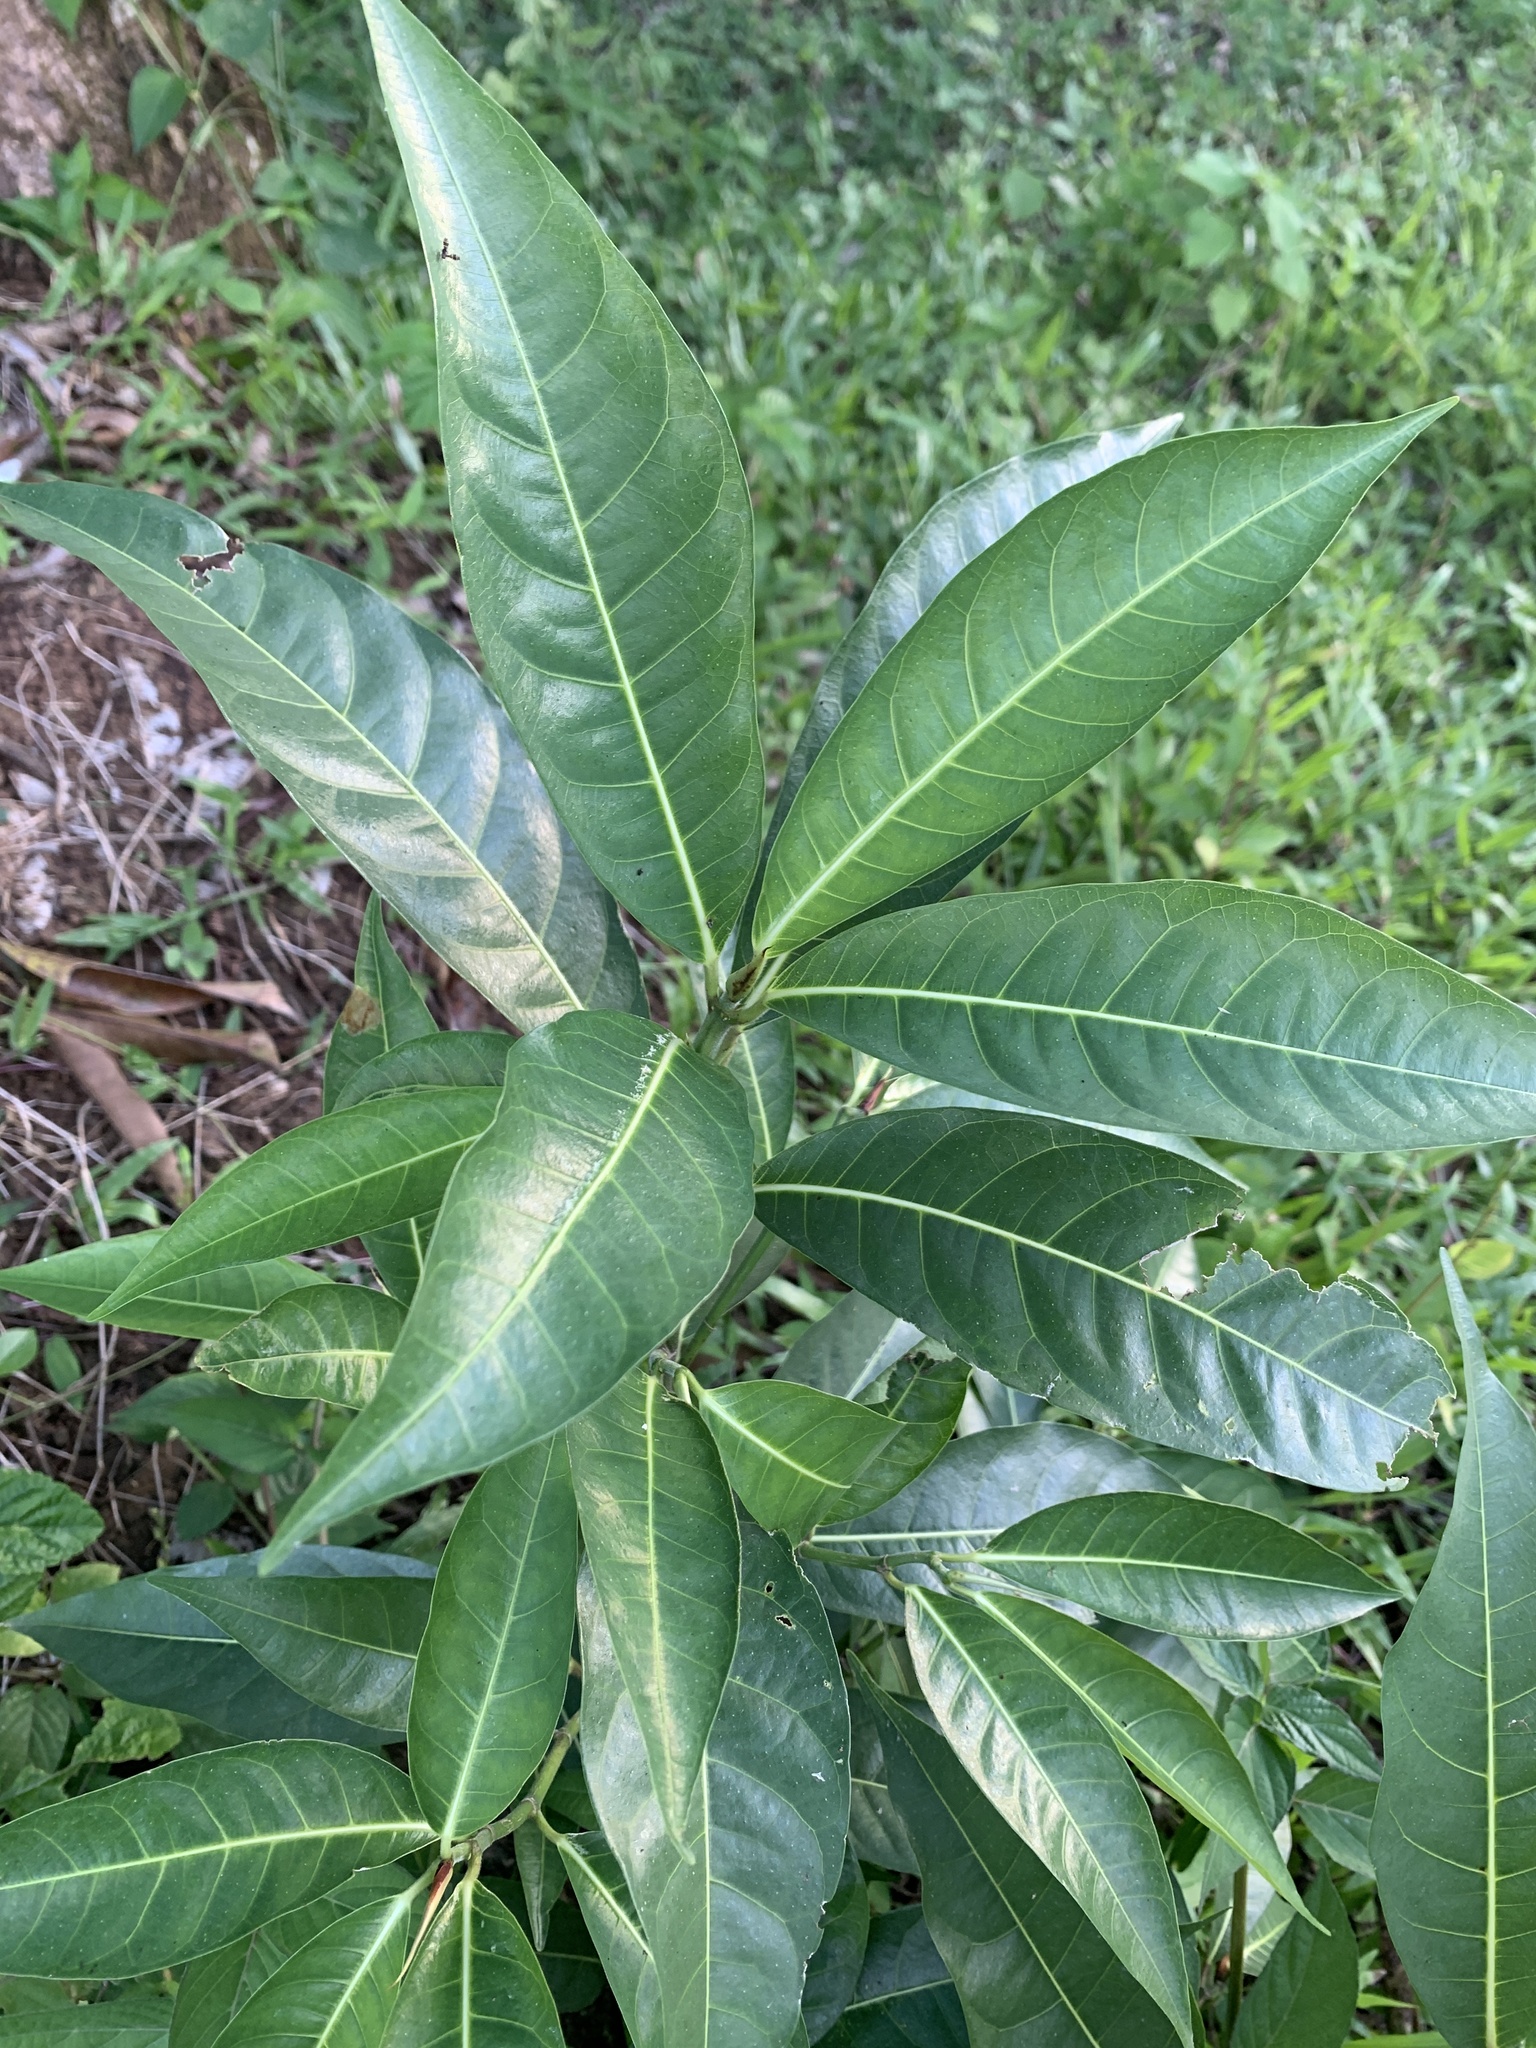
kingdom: Plantae
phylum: Tracheophyta
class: Magnoliopsida
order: Sapindales
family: Anacardiaceae
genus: Mangifera
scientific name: Mangifera indica
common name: Mango
